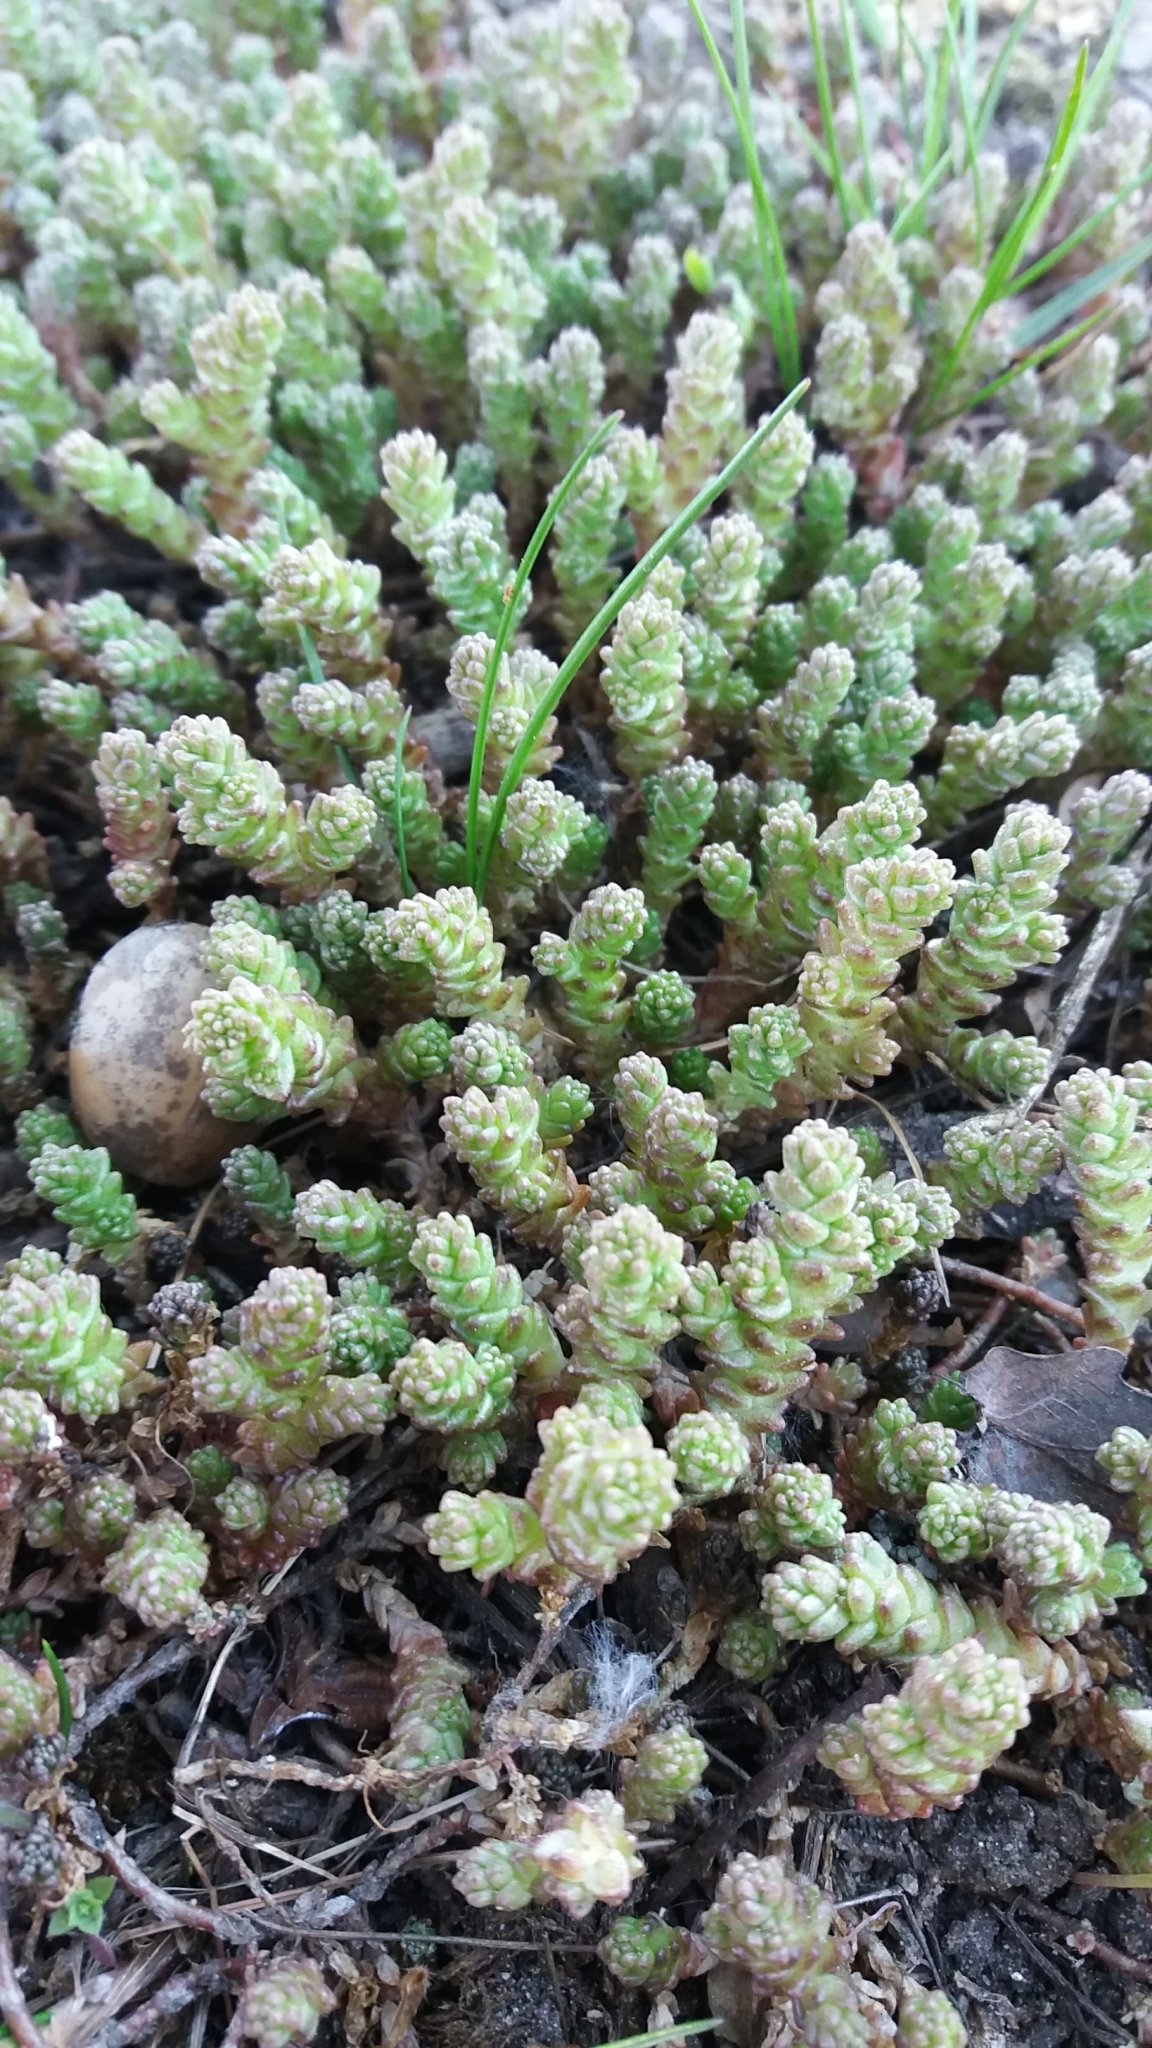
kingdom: Plantae
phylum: Tracheophyta
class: Magnoliopsida
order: Saxifragales
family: Crassulaceae
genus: Sedum
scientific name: Sedum acre
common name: Biting stonecrop
